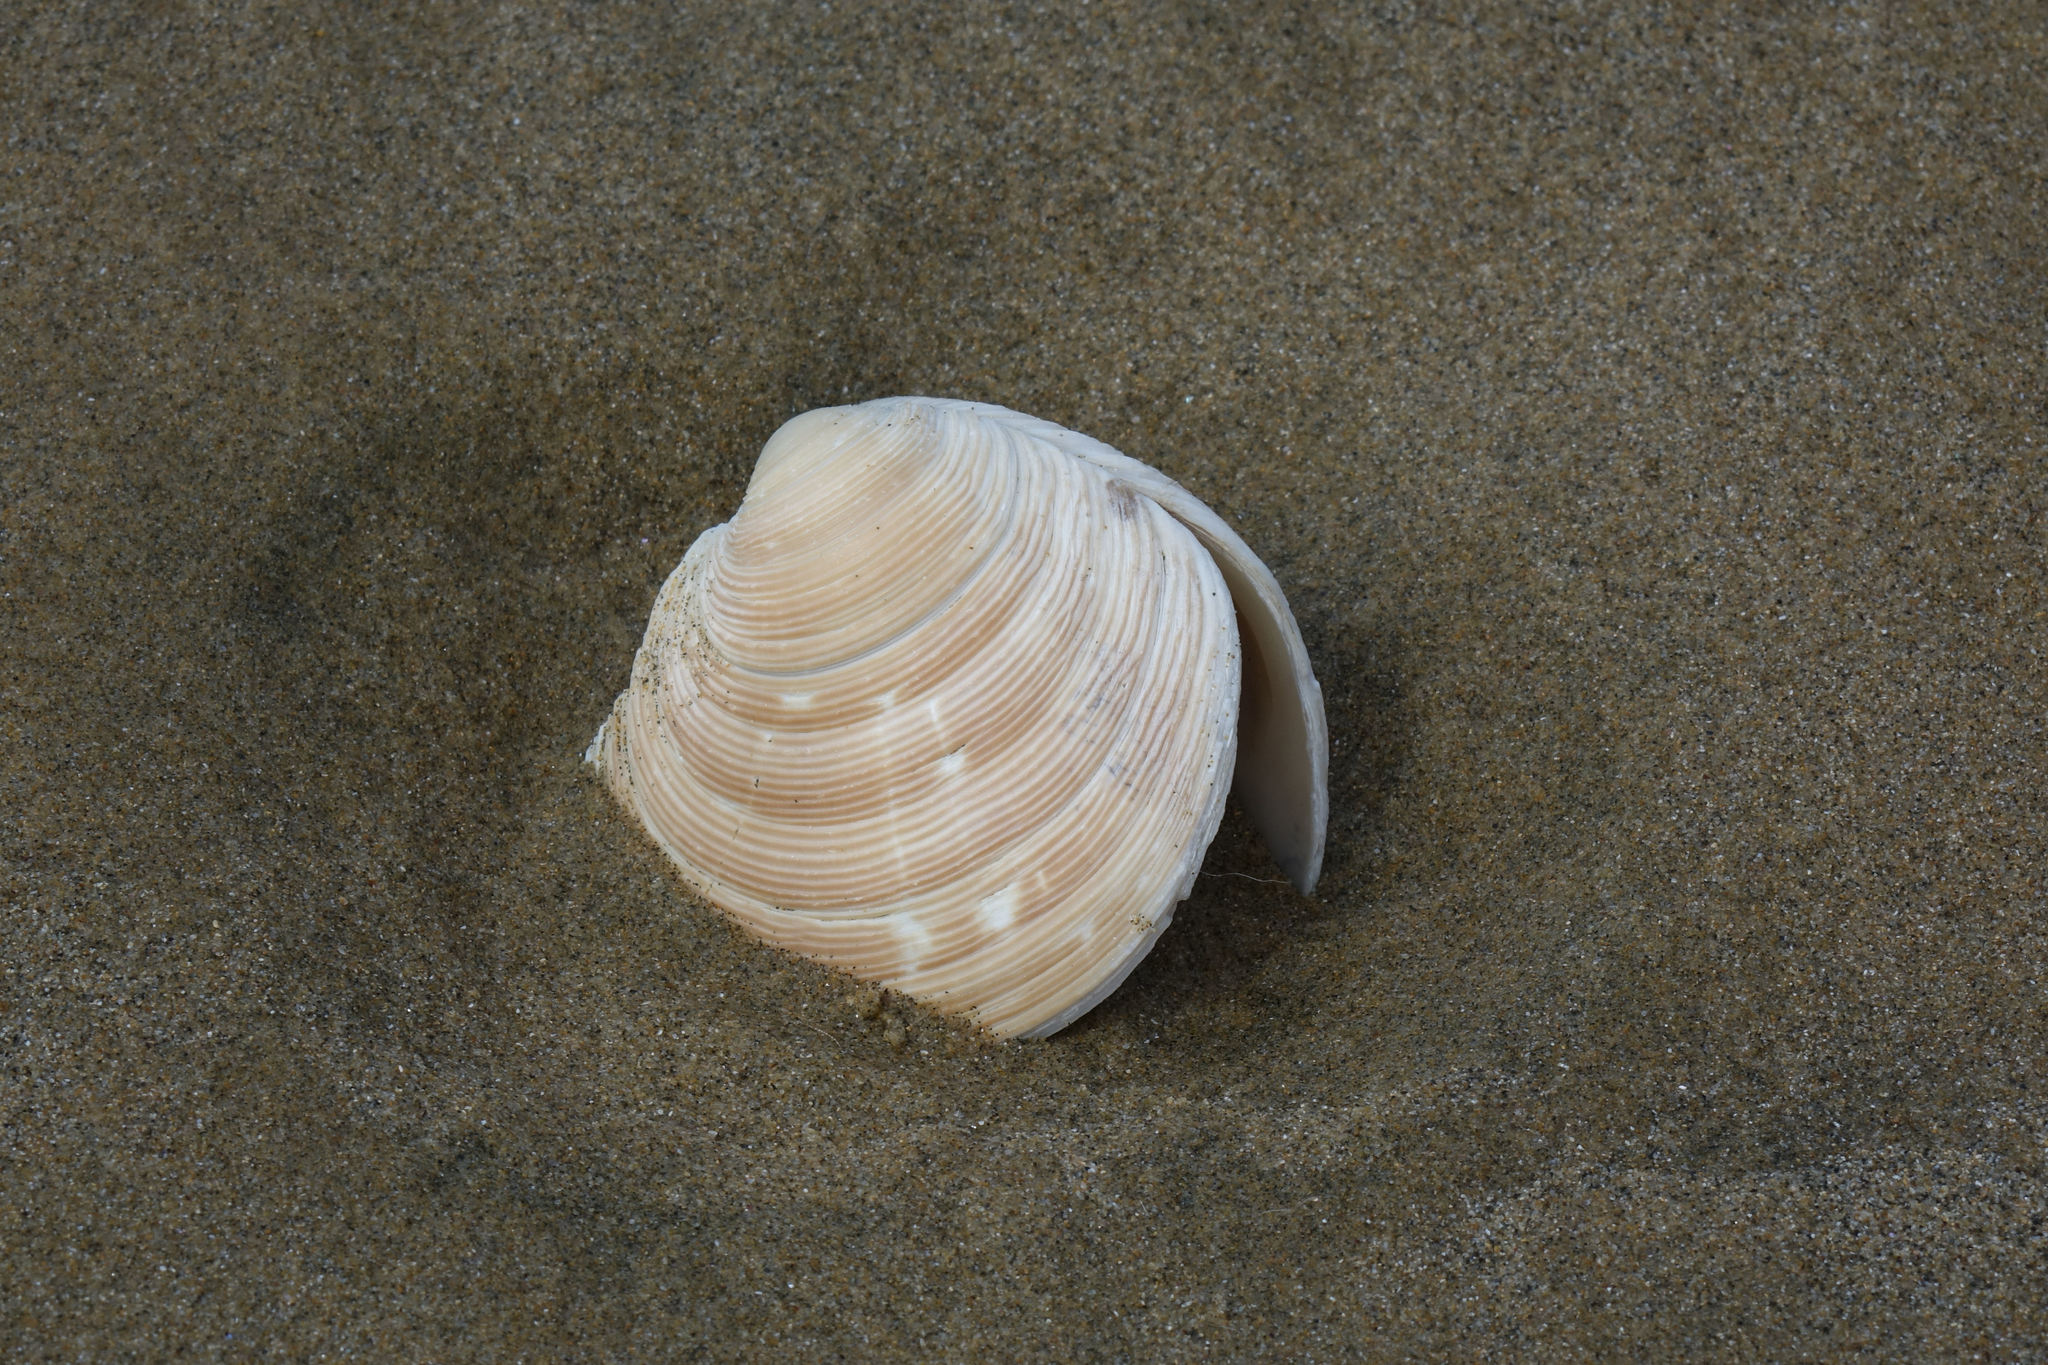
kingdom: Animalia
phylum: Mollusca
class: Bivalvia
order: Venerida
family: Veneridae
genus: Dosinia
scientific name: Dosinia anus
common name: Old-woman dosinia
